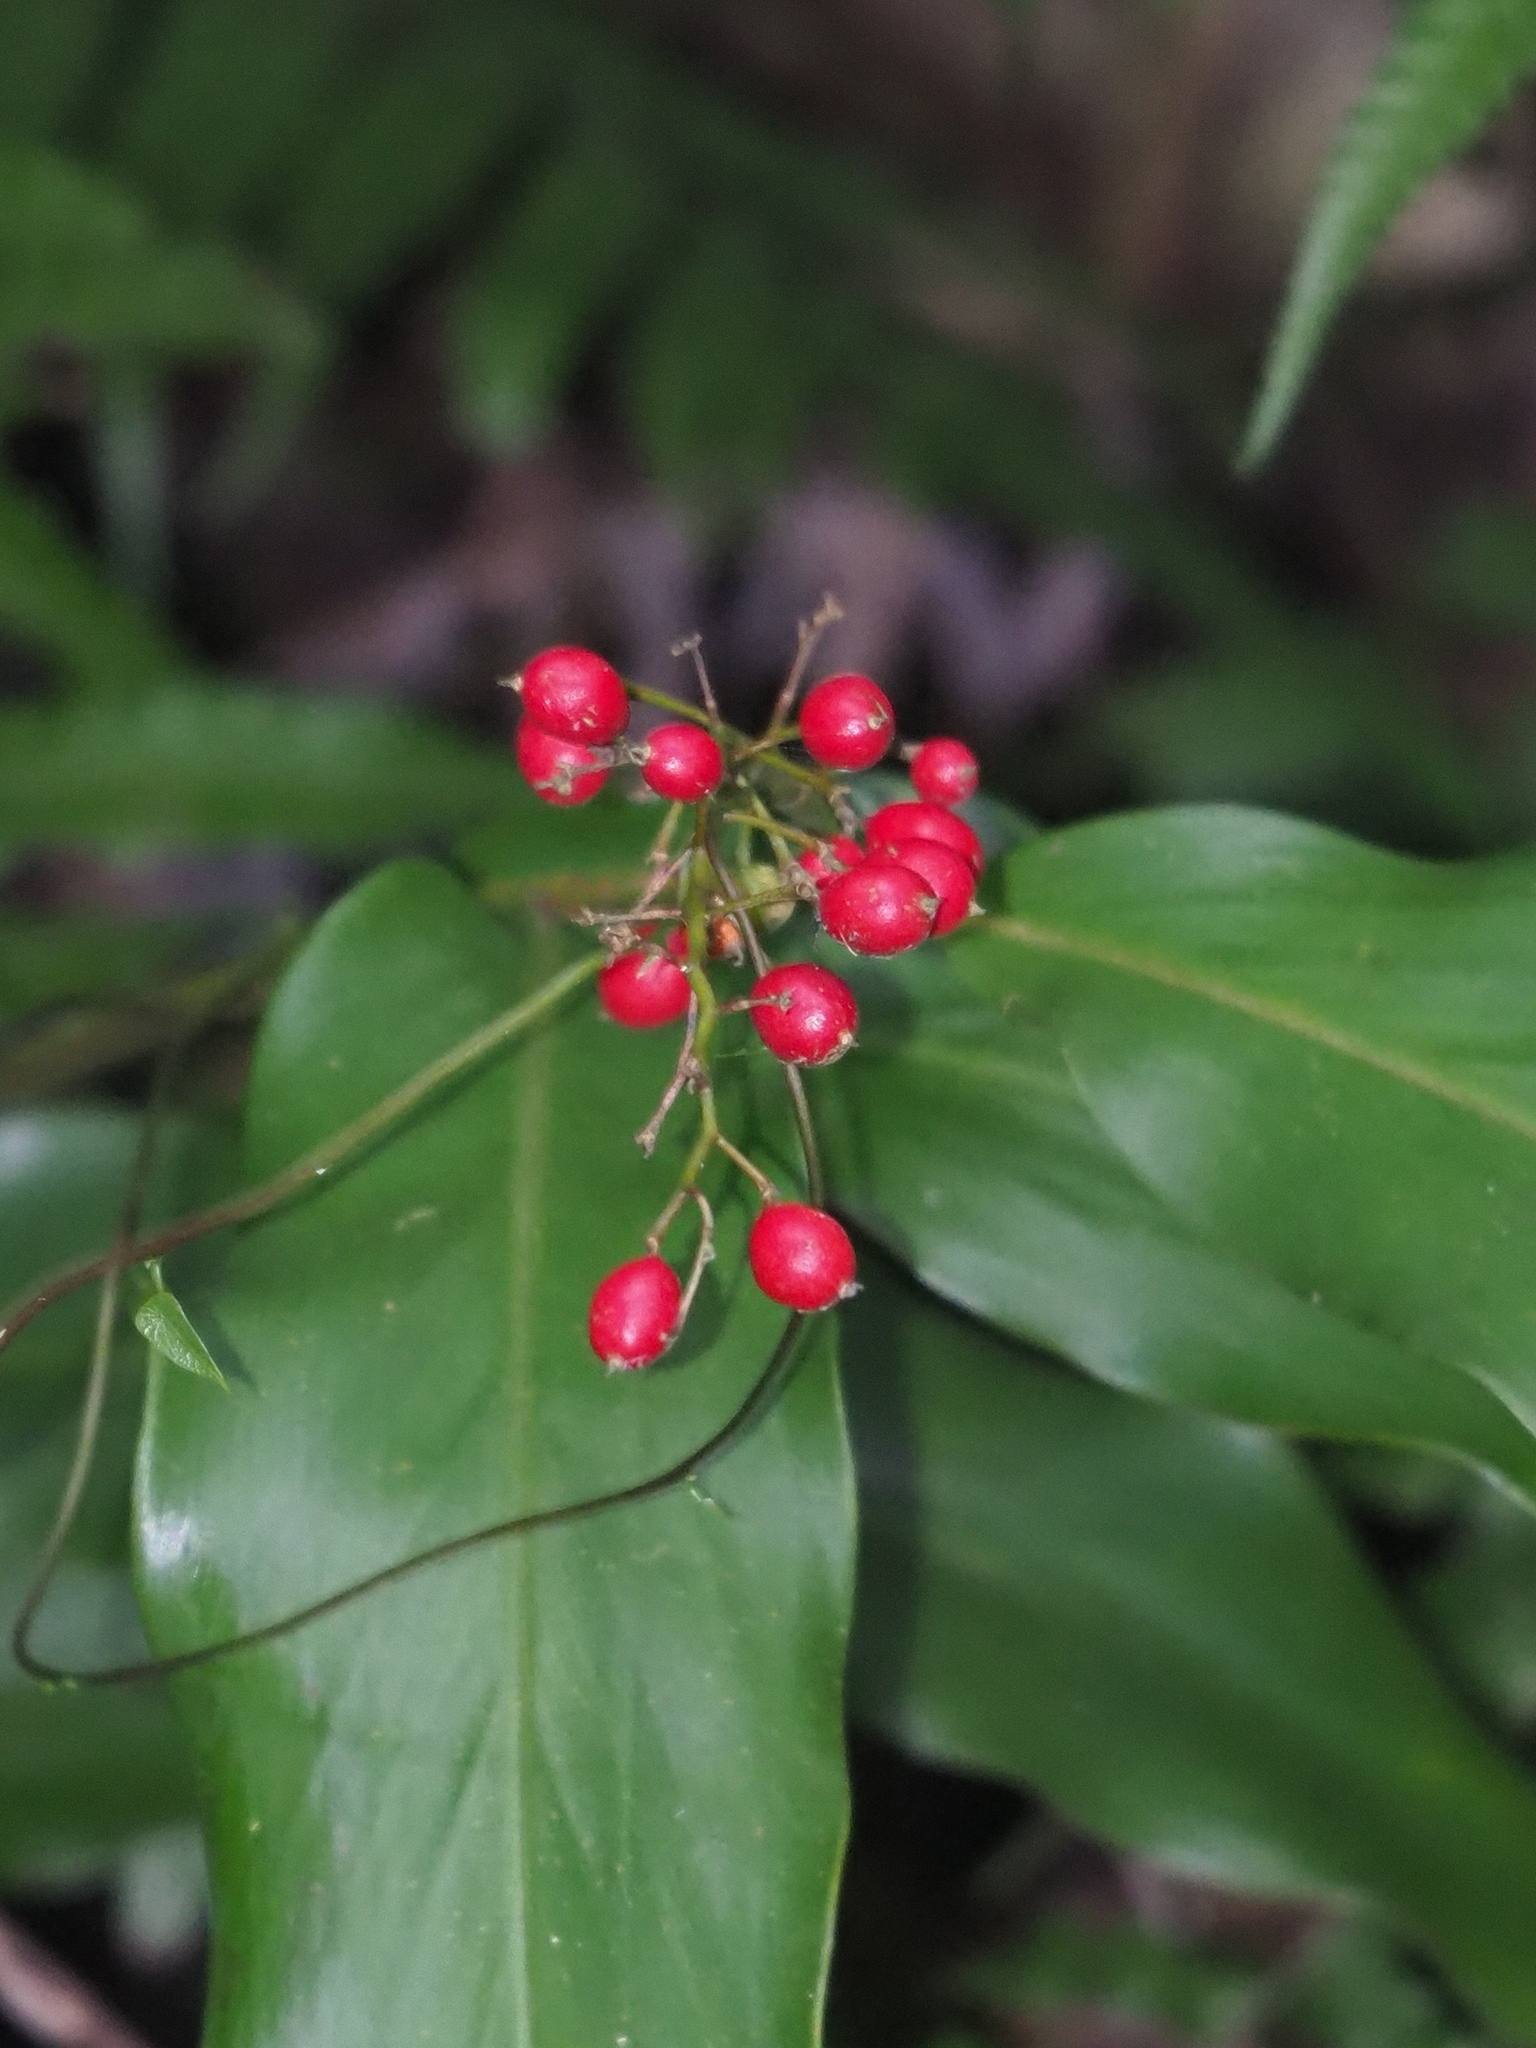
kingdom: Plantae
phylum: Tracheophyta
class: Liliopsida
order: Zingiberales
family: Zingiberaceae
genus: Alpinia
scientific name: Alpinia intermedia
